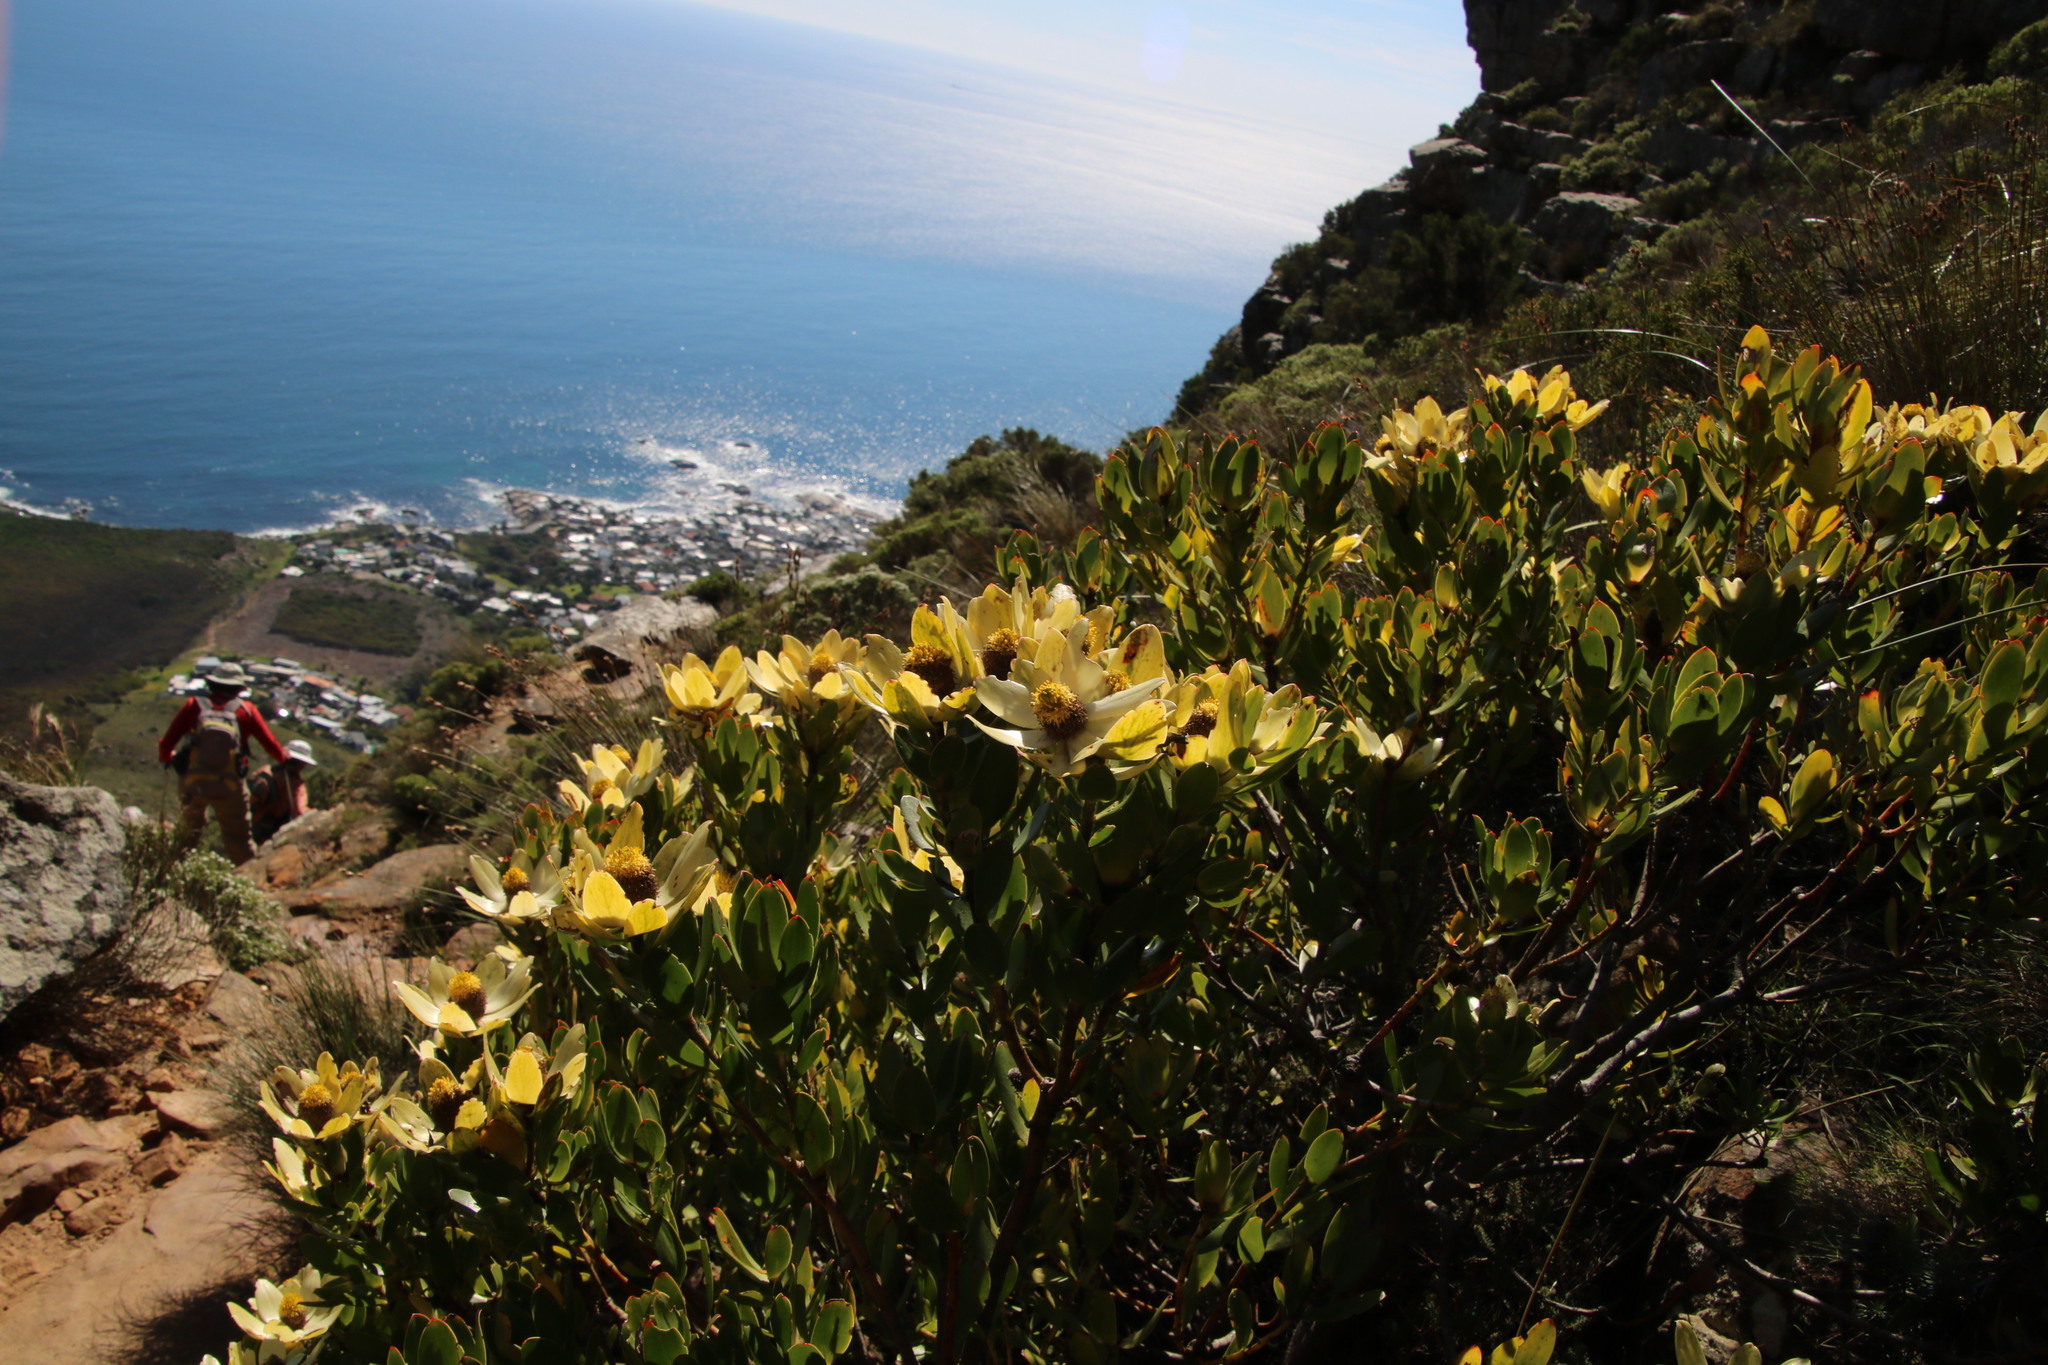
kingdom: Plantae
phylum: Tracheophyta
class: Magnoliopsida
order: Proteales
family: Proteaceae
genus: Leucadendron
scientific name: Leucadendron strobilinum
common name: Mountain rose
